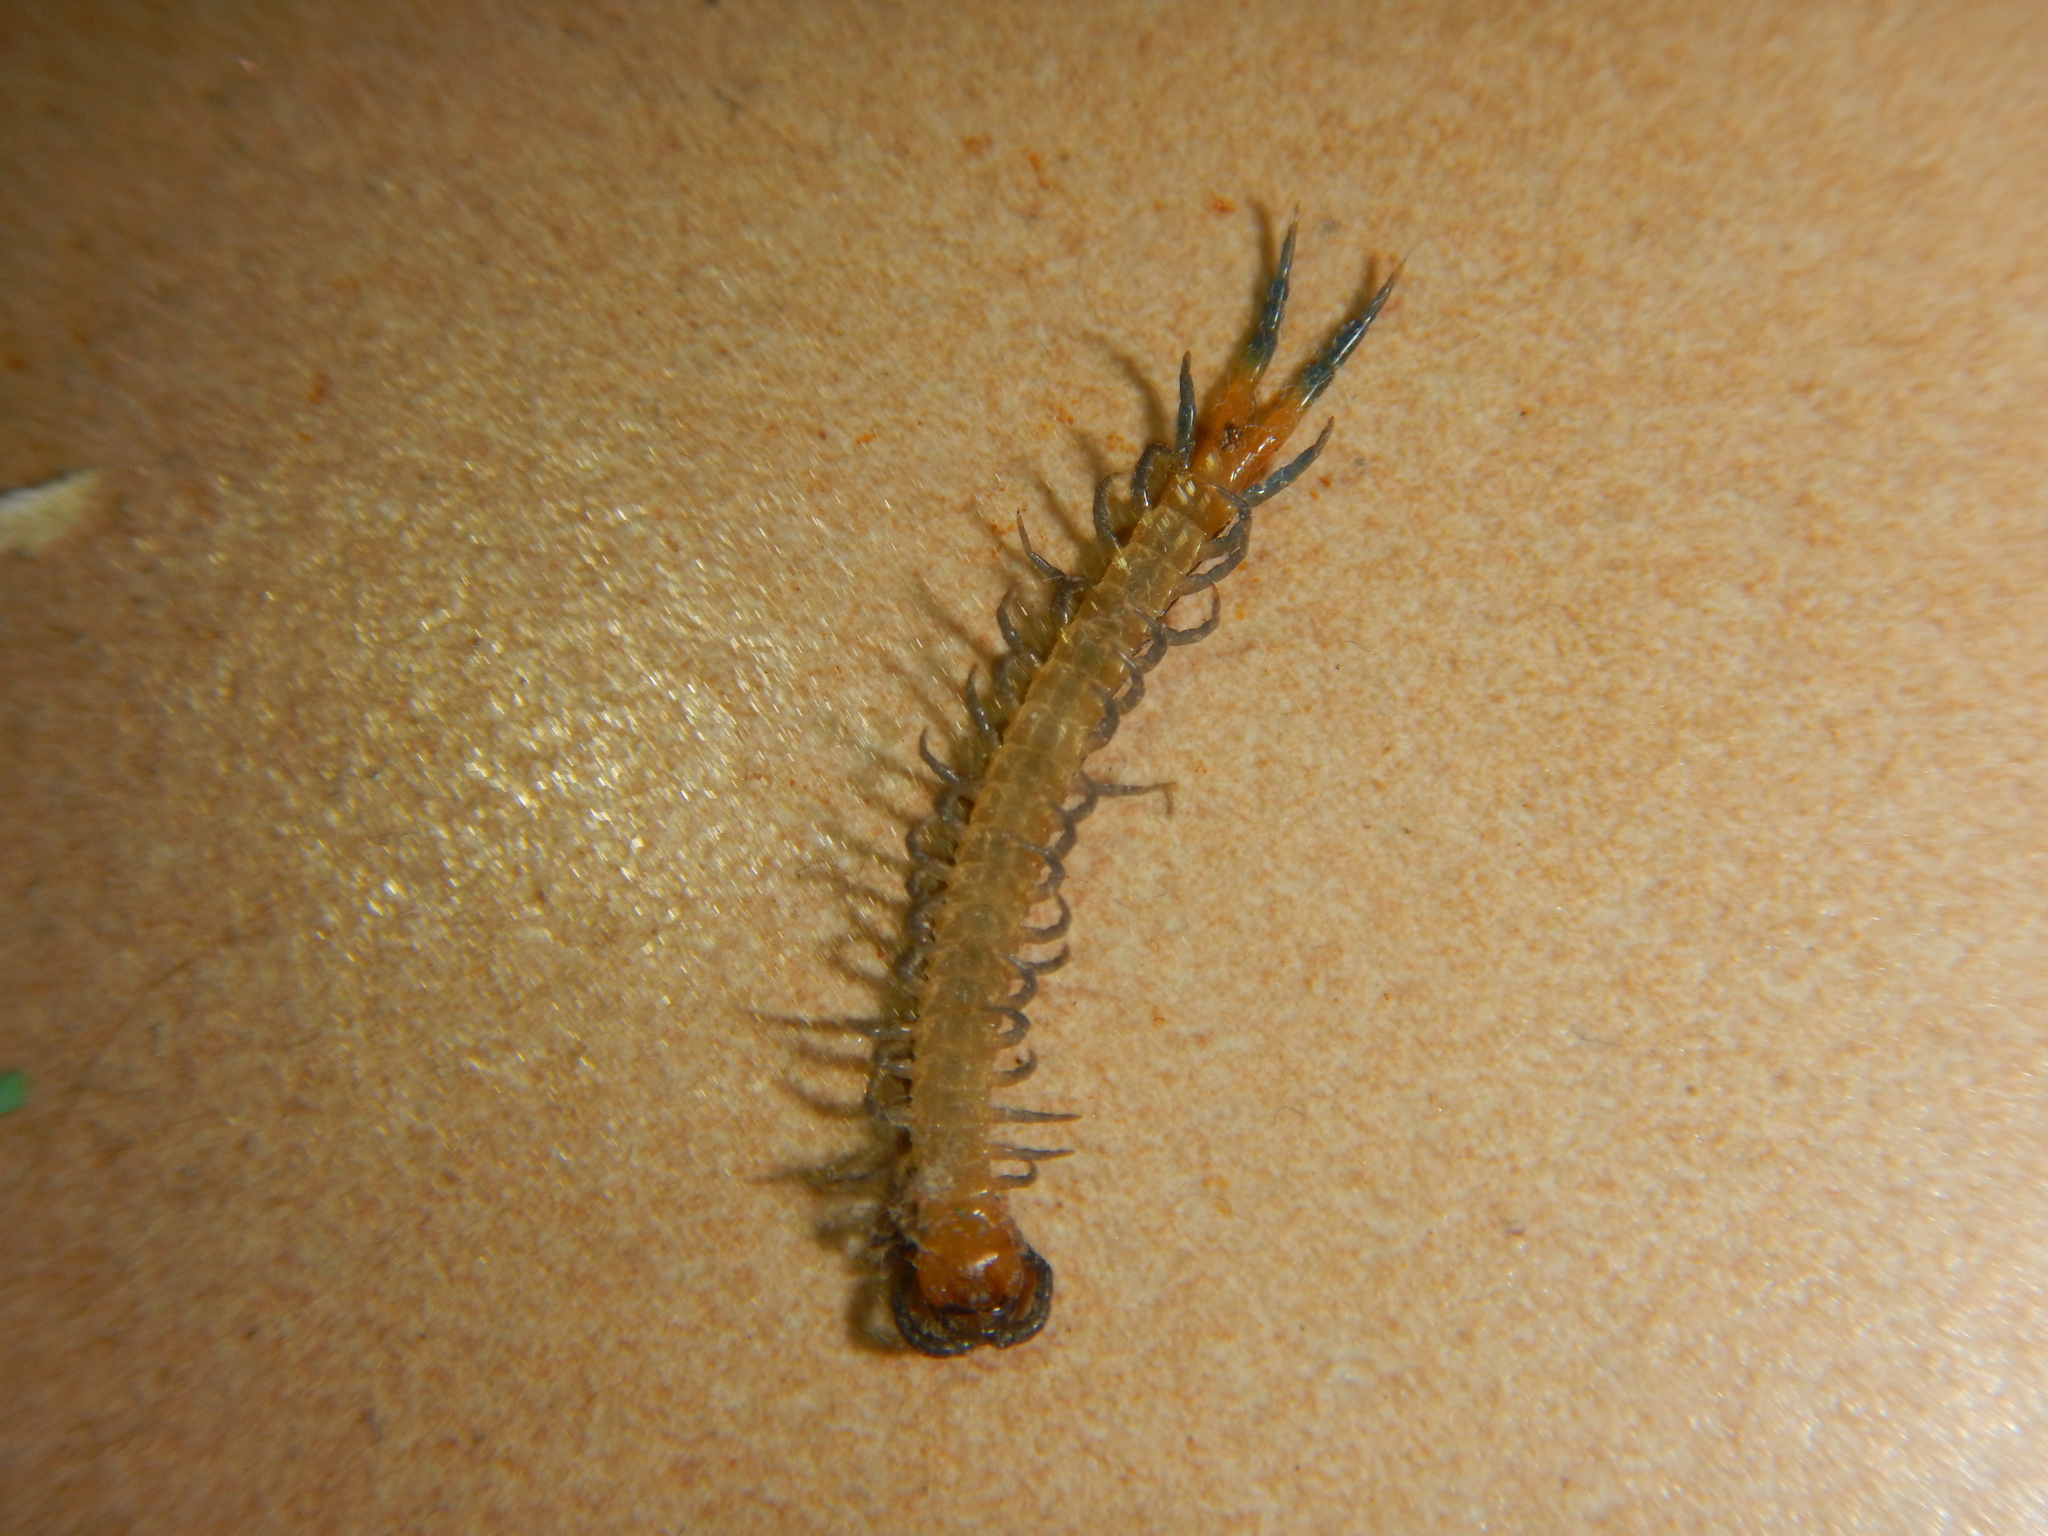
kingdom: Animalia
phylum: Arthropoda
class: Chilopoda
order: Scolopendromorpha
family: Scolopendridae
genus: Scolopendra
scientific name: Scolopendra cingulata
